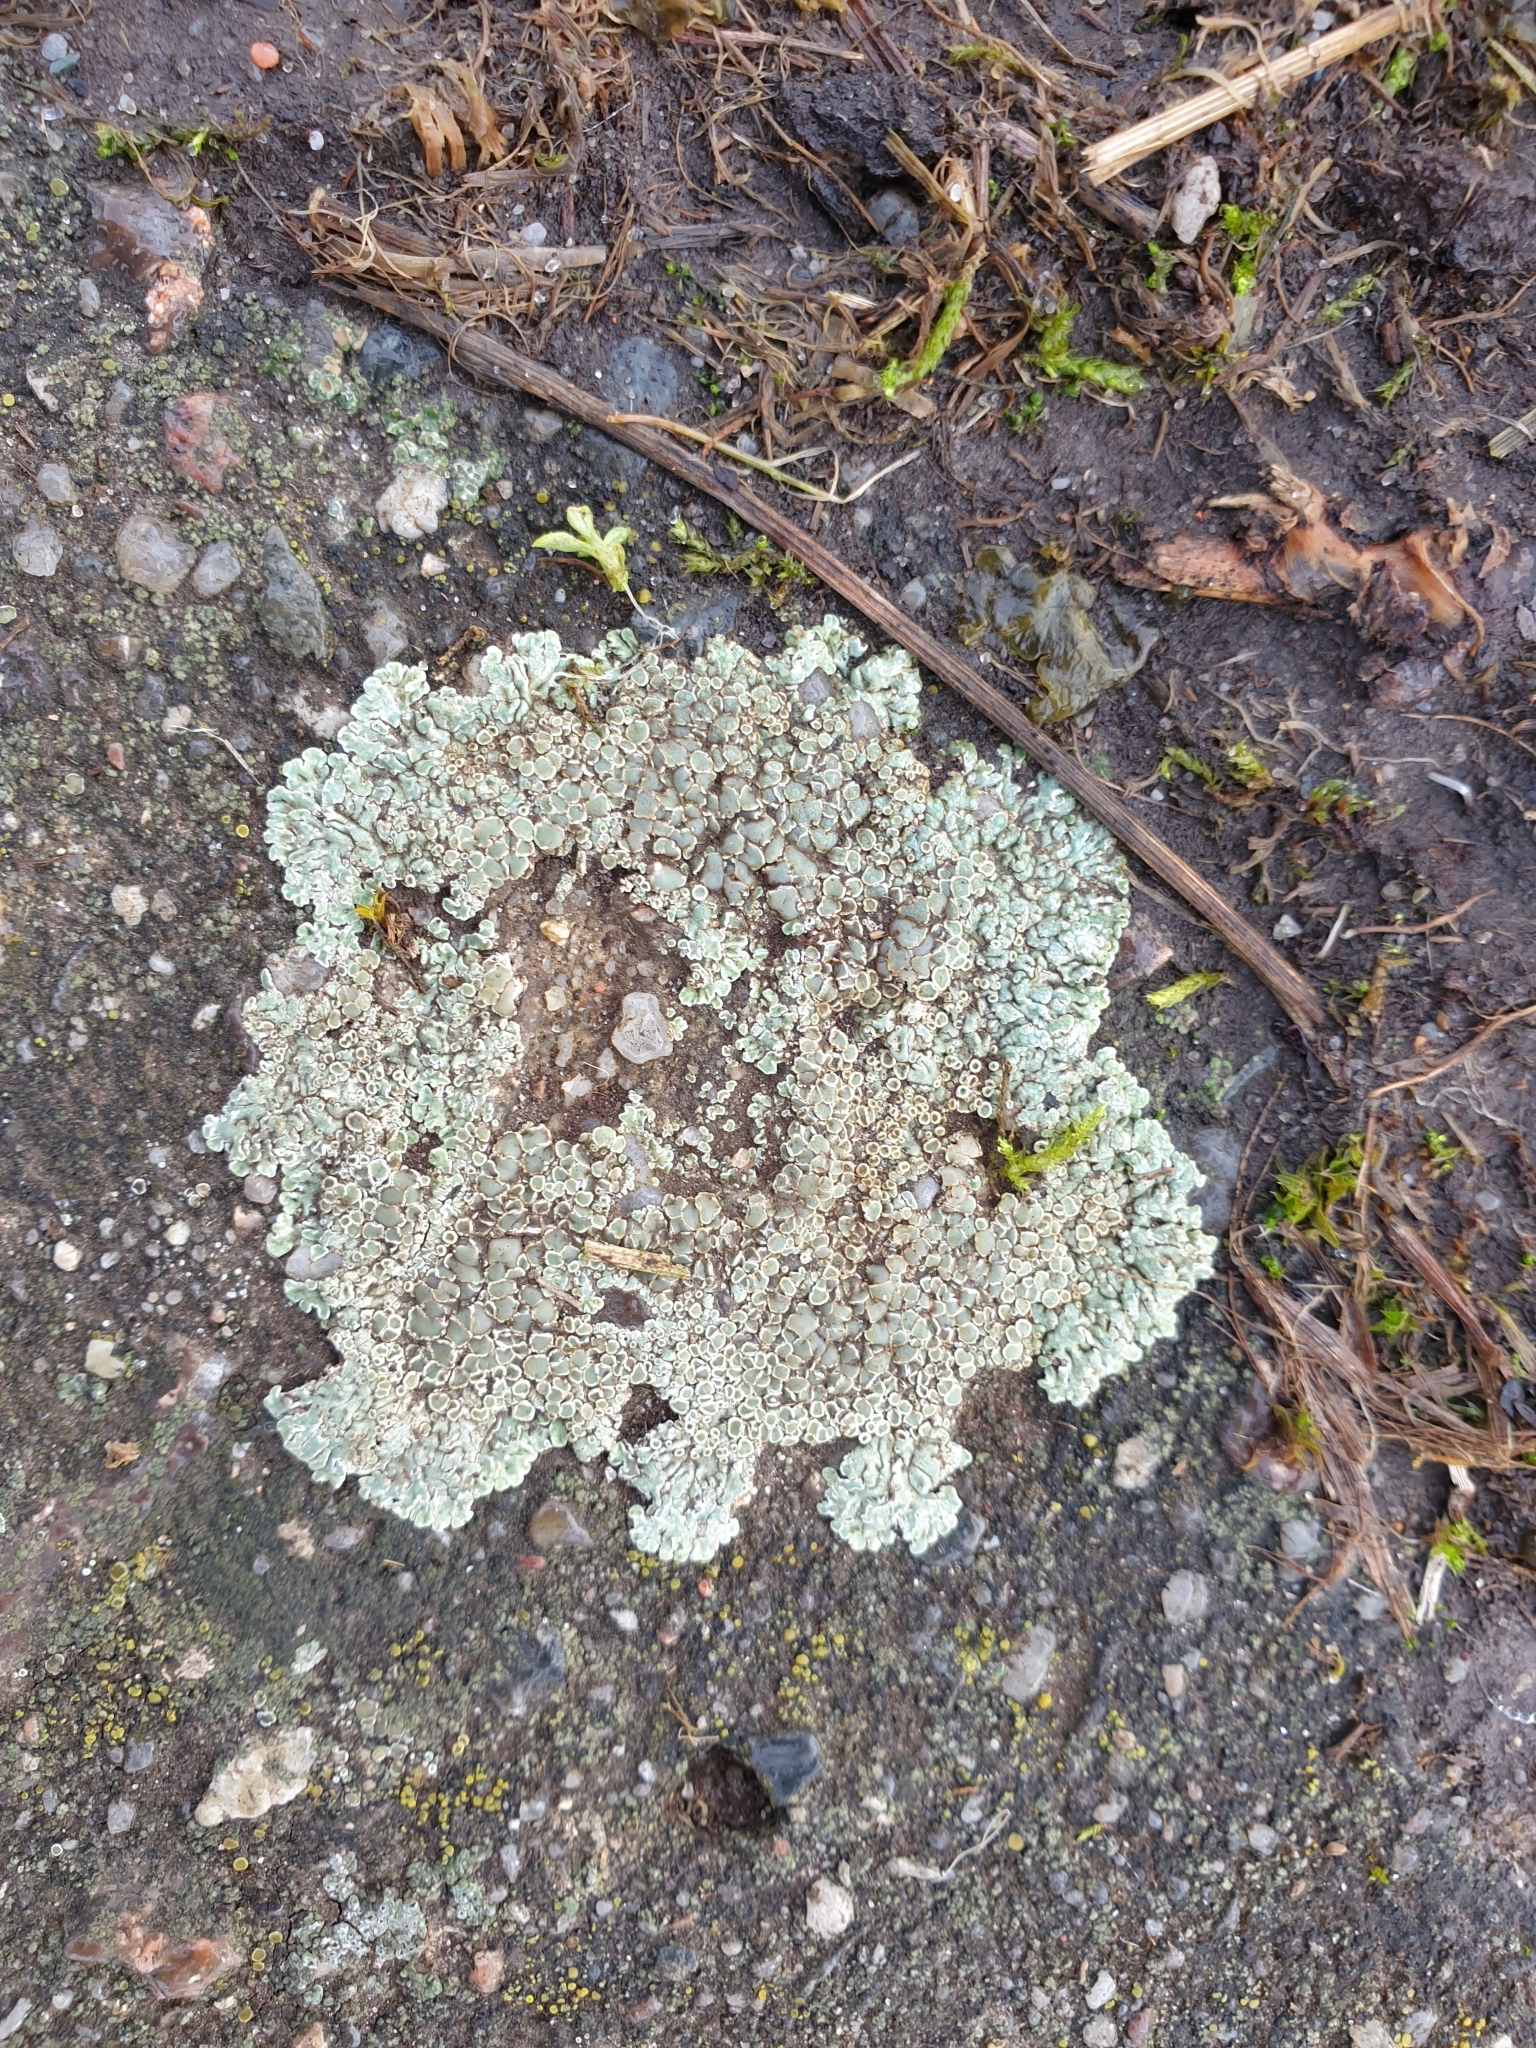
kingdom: Fungi
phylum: Ascomycota
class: Lecanoromycetes
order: Lecanorales
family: Lecanoraceae
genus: Protoparmeliopsis
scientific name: Protoparmeliopsis muralis
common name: Stonewall rim lichen
